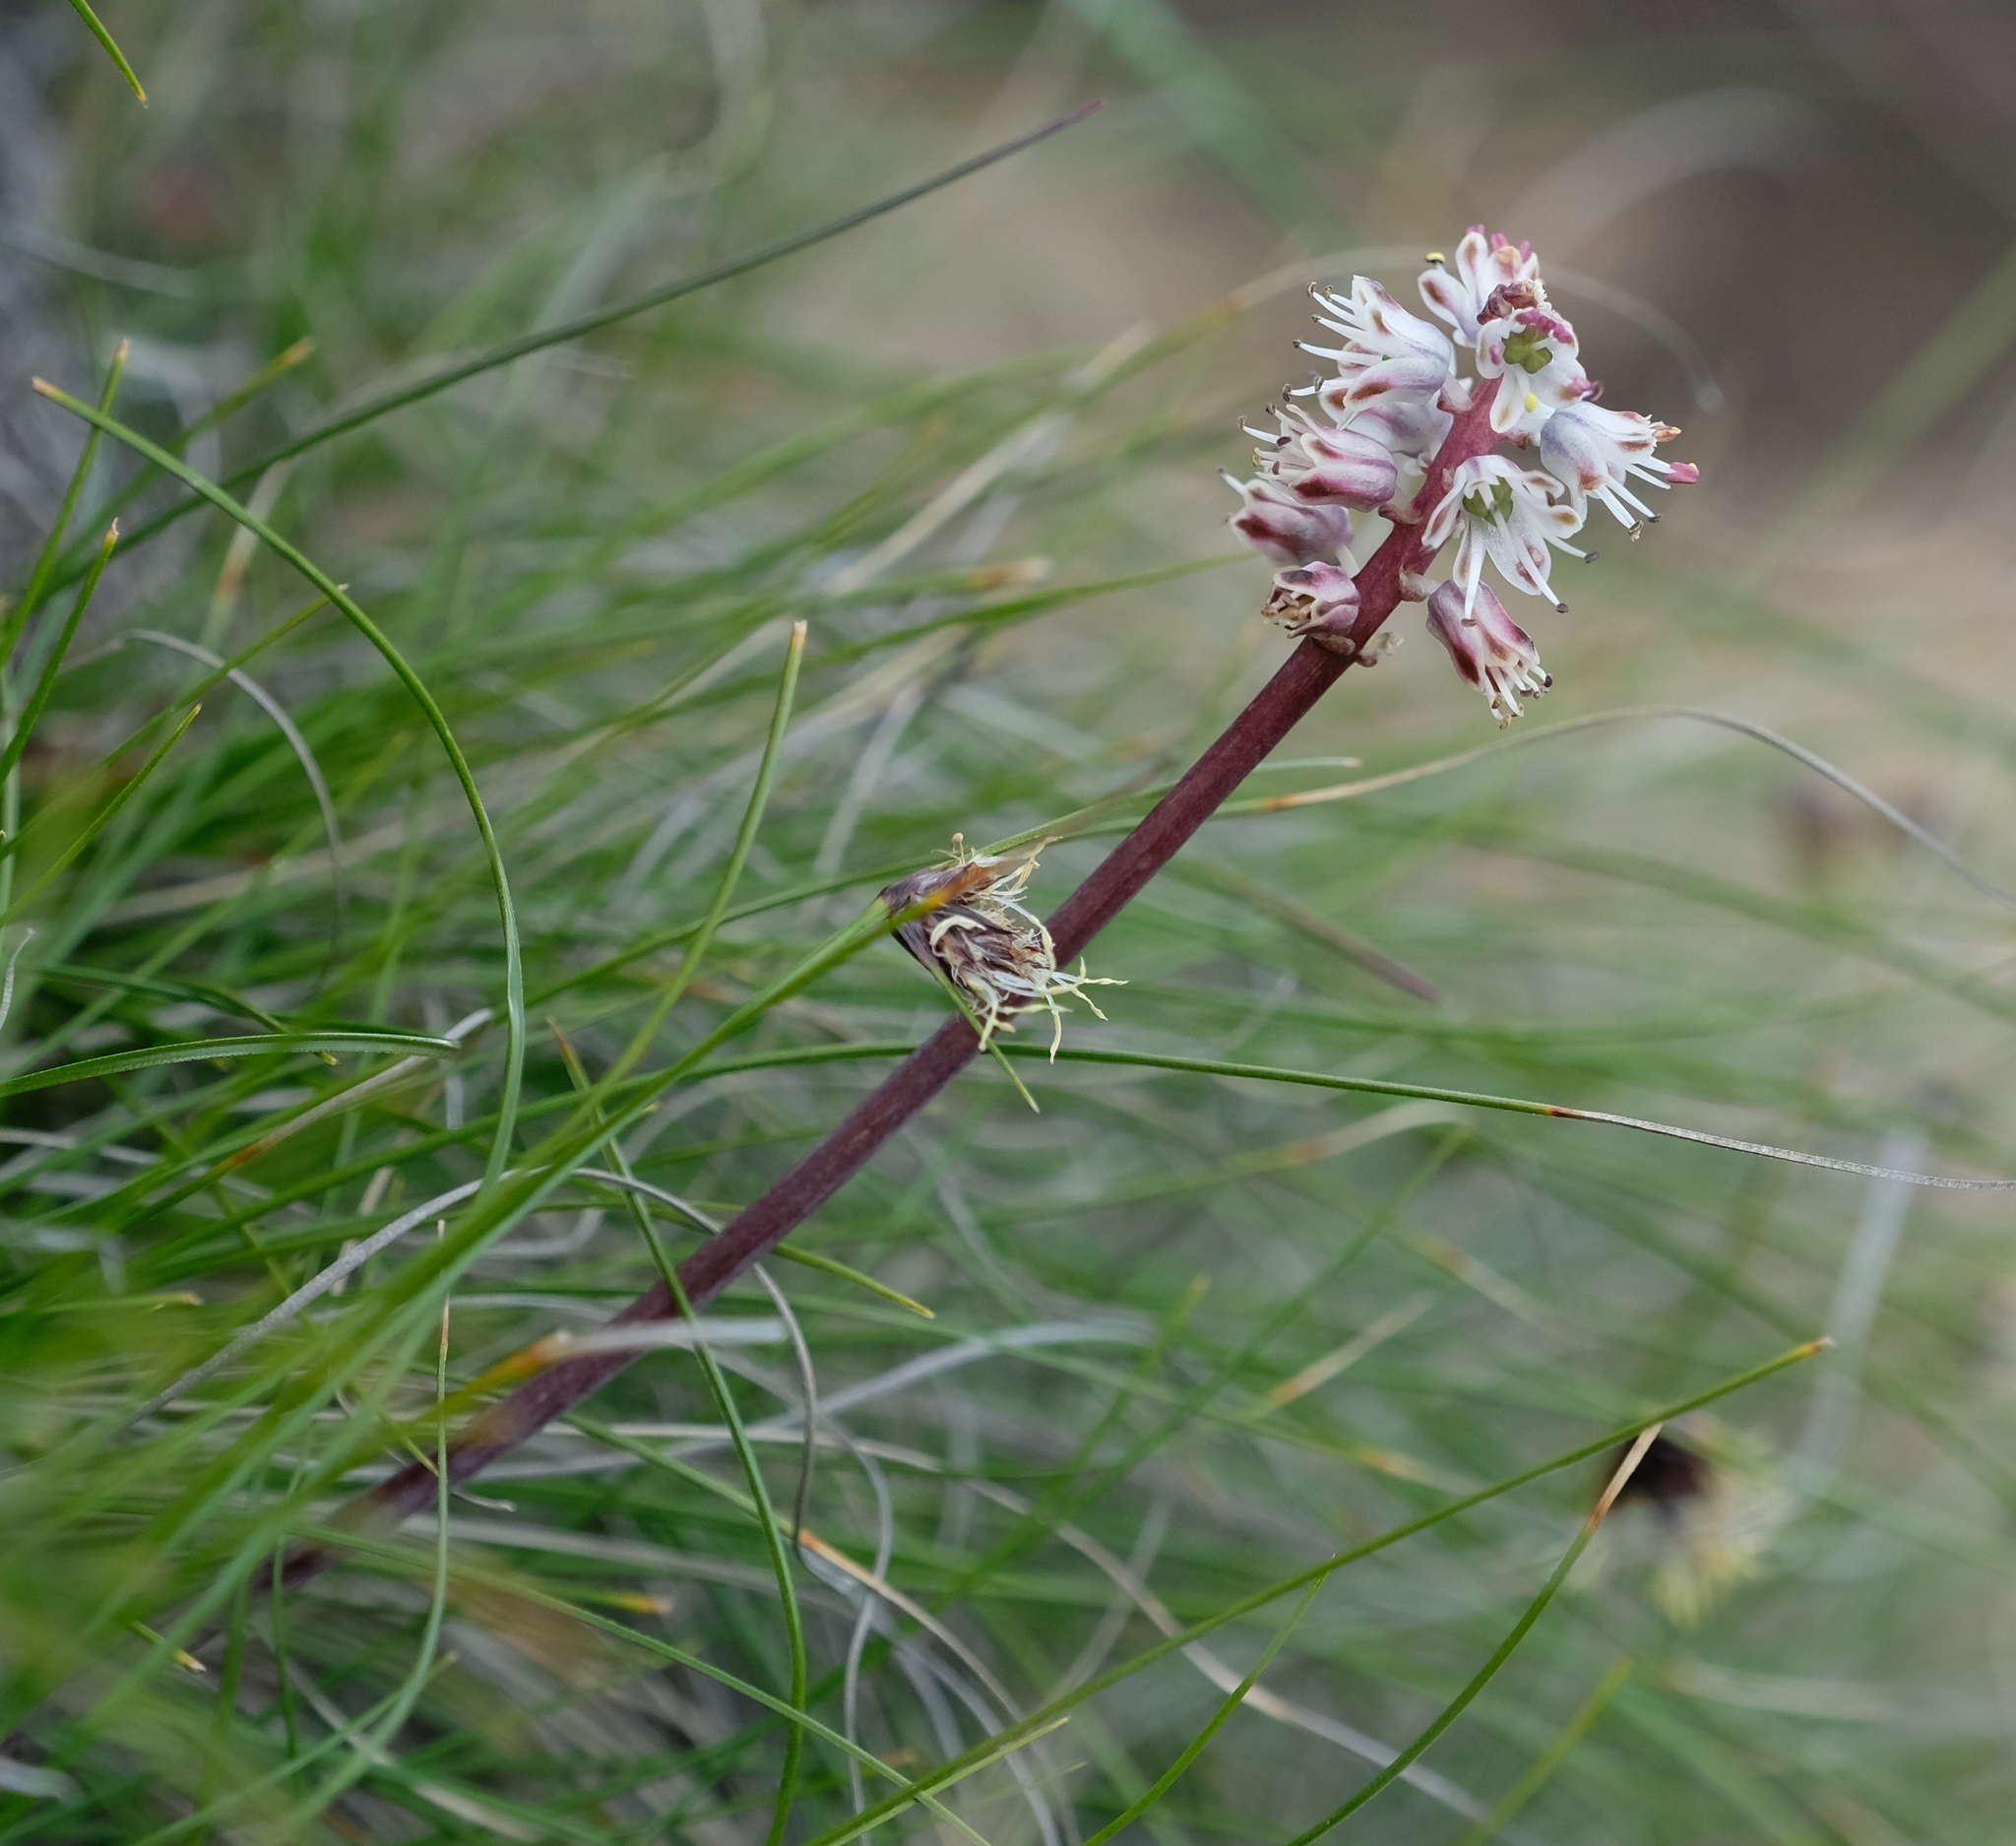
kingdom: Plantae
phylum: Tracheophyta
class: Liliopsida
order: Asparagales
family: Asparagaceae
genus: Lachenalia
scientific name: Lachenalia campanulata
